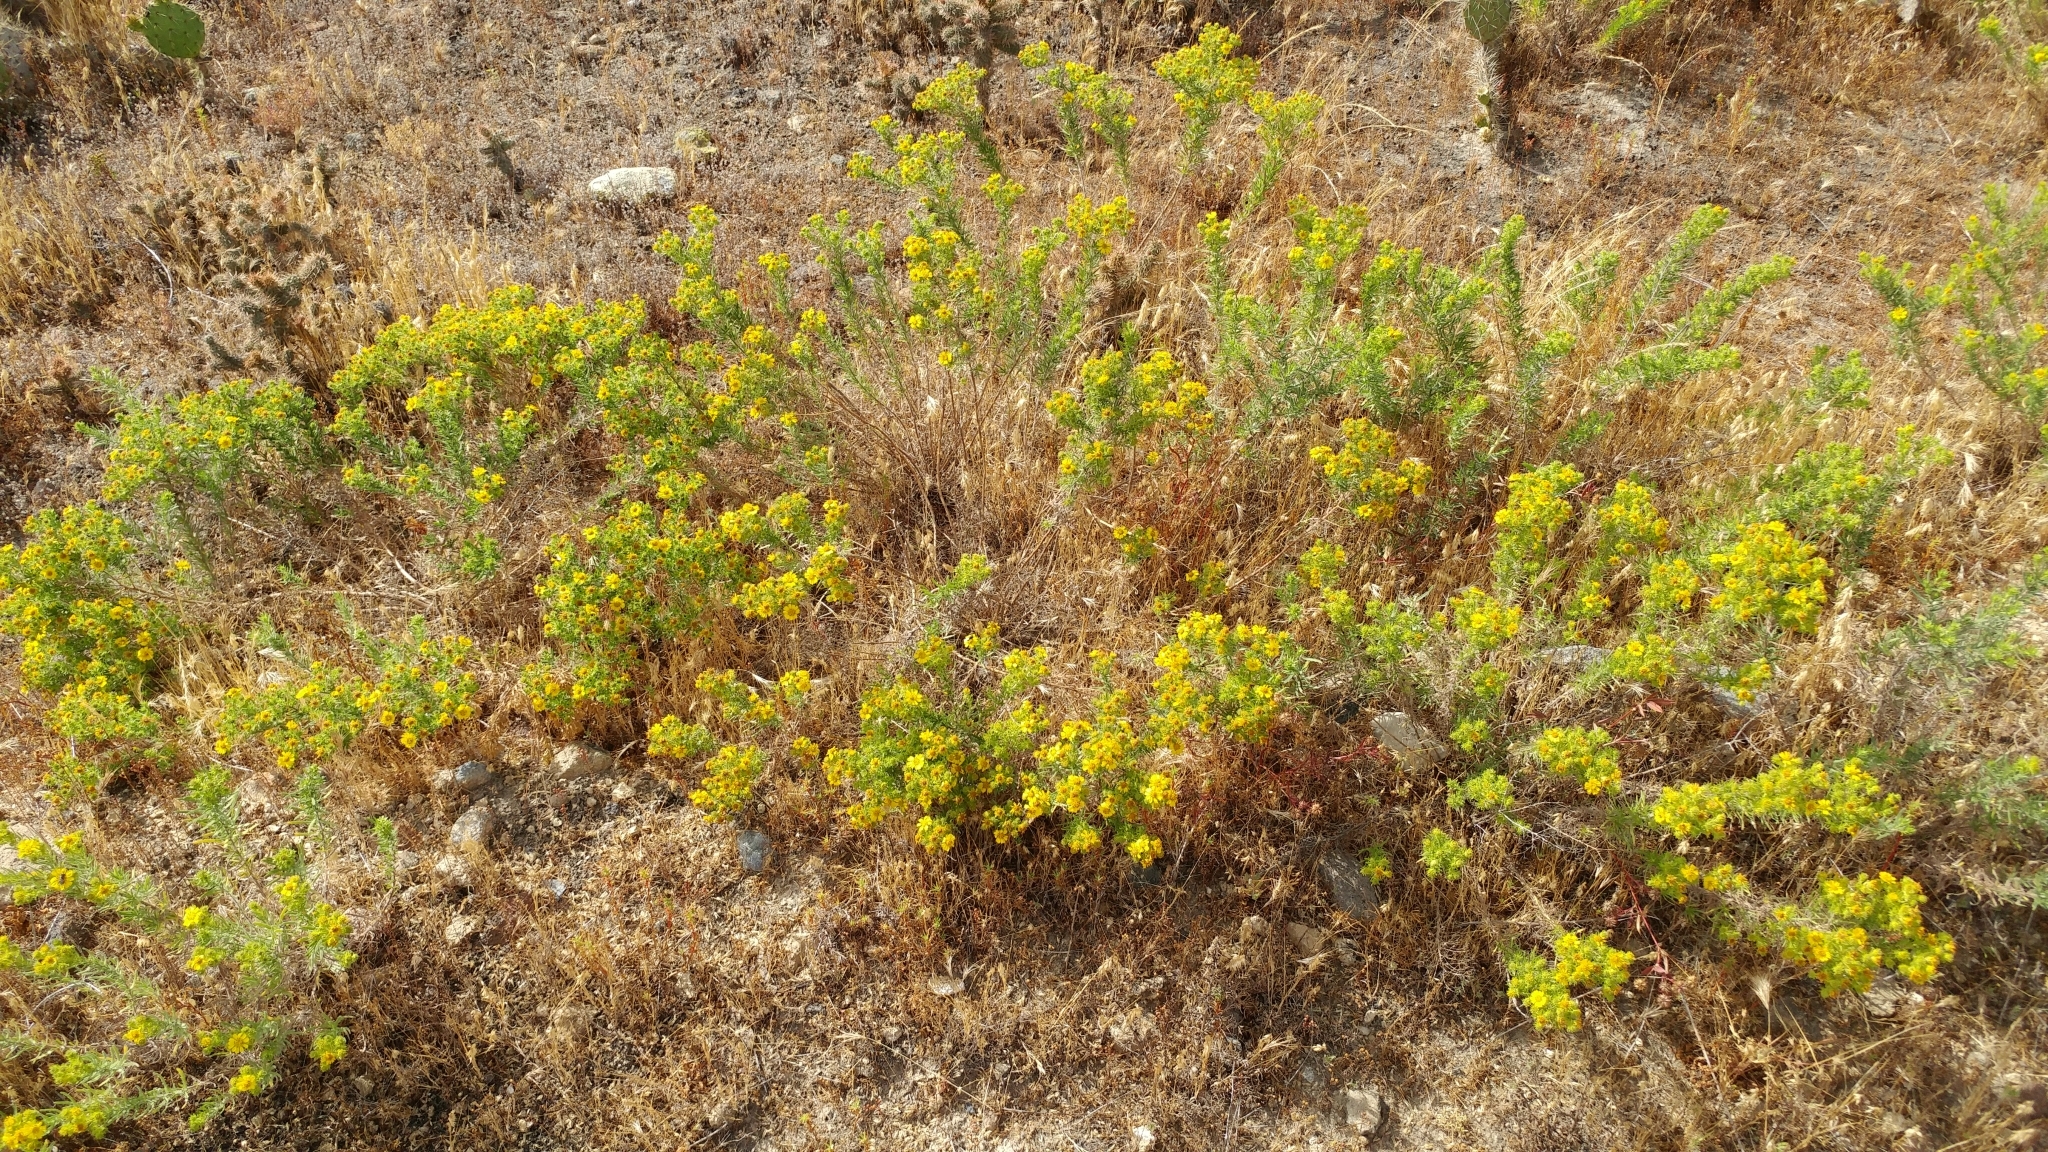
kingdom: Plantae
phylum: Tracheophyta
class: Magnoliopsida
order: Asterales
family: Asteraceae
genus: Deinandra
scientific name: Deinandra clementina
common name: Island tarplant
